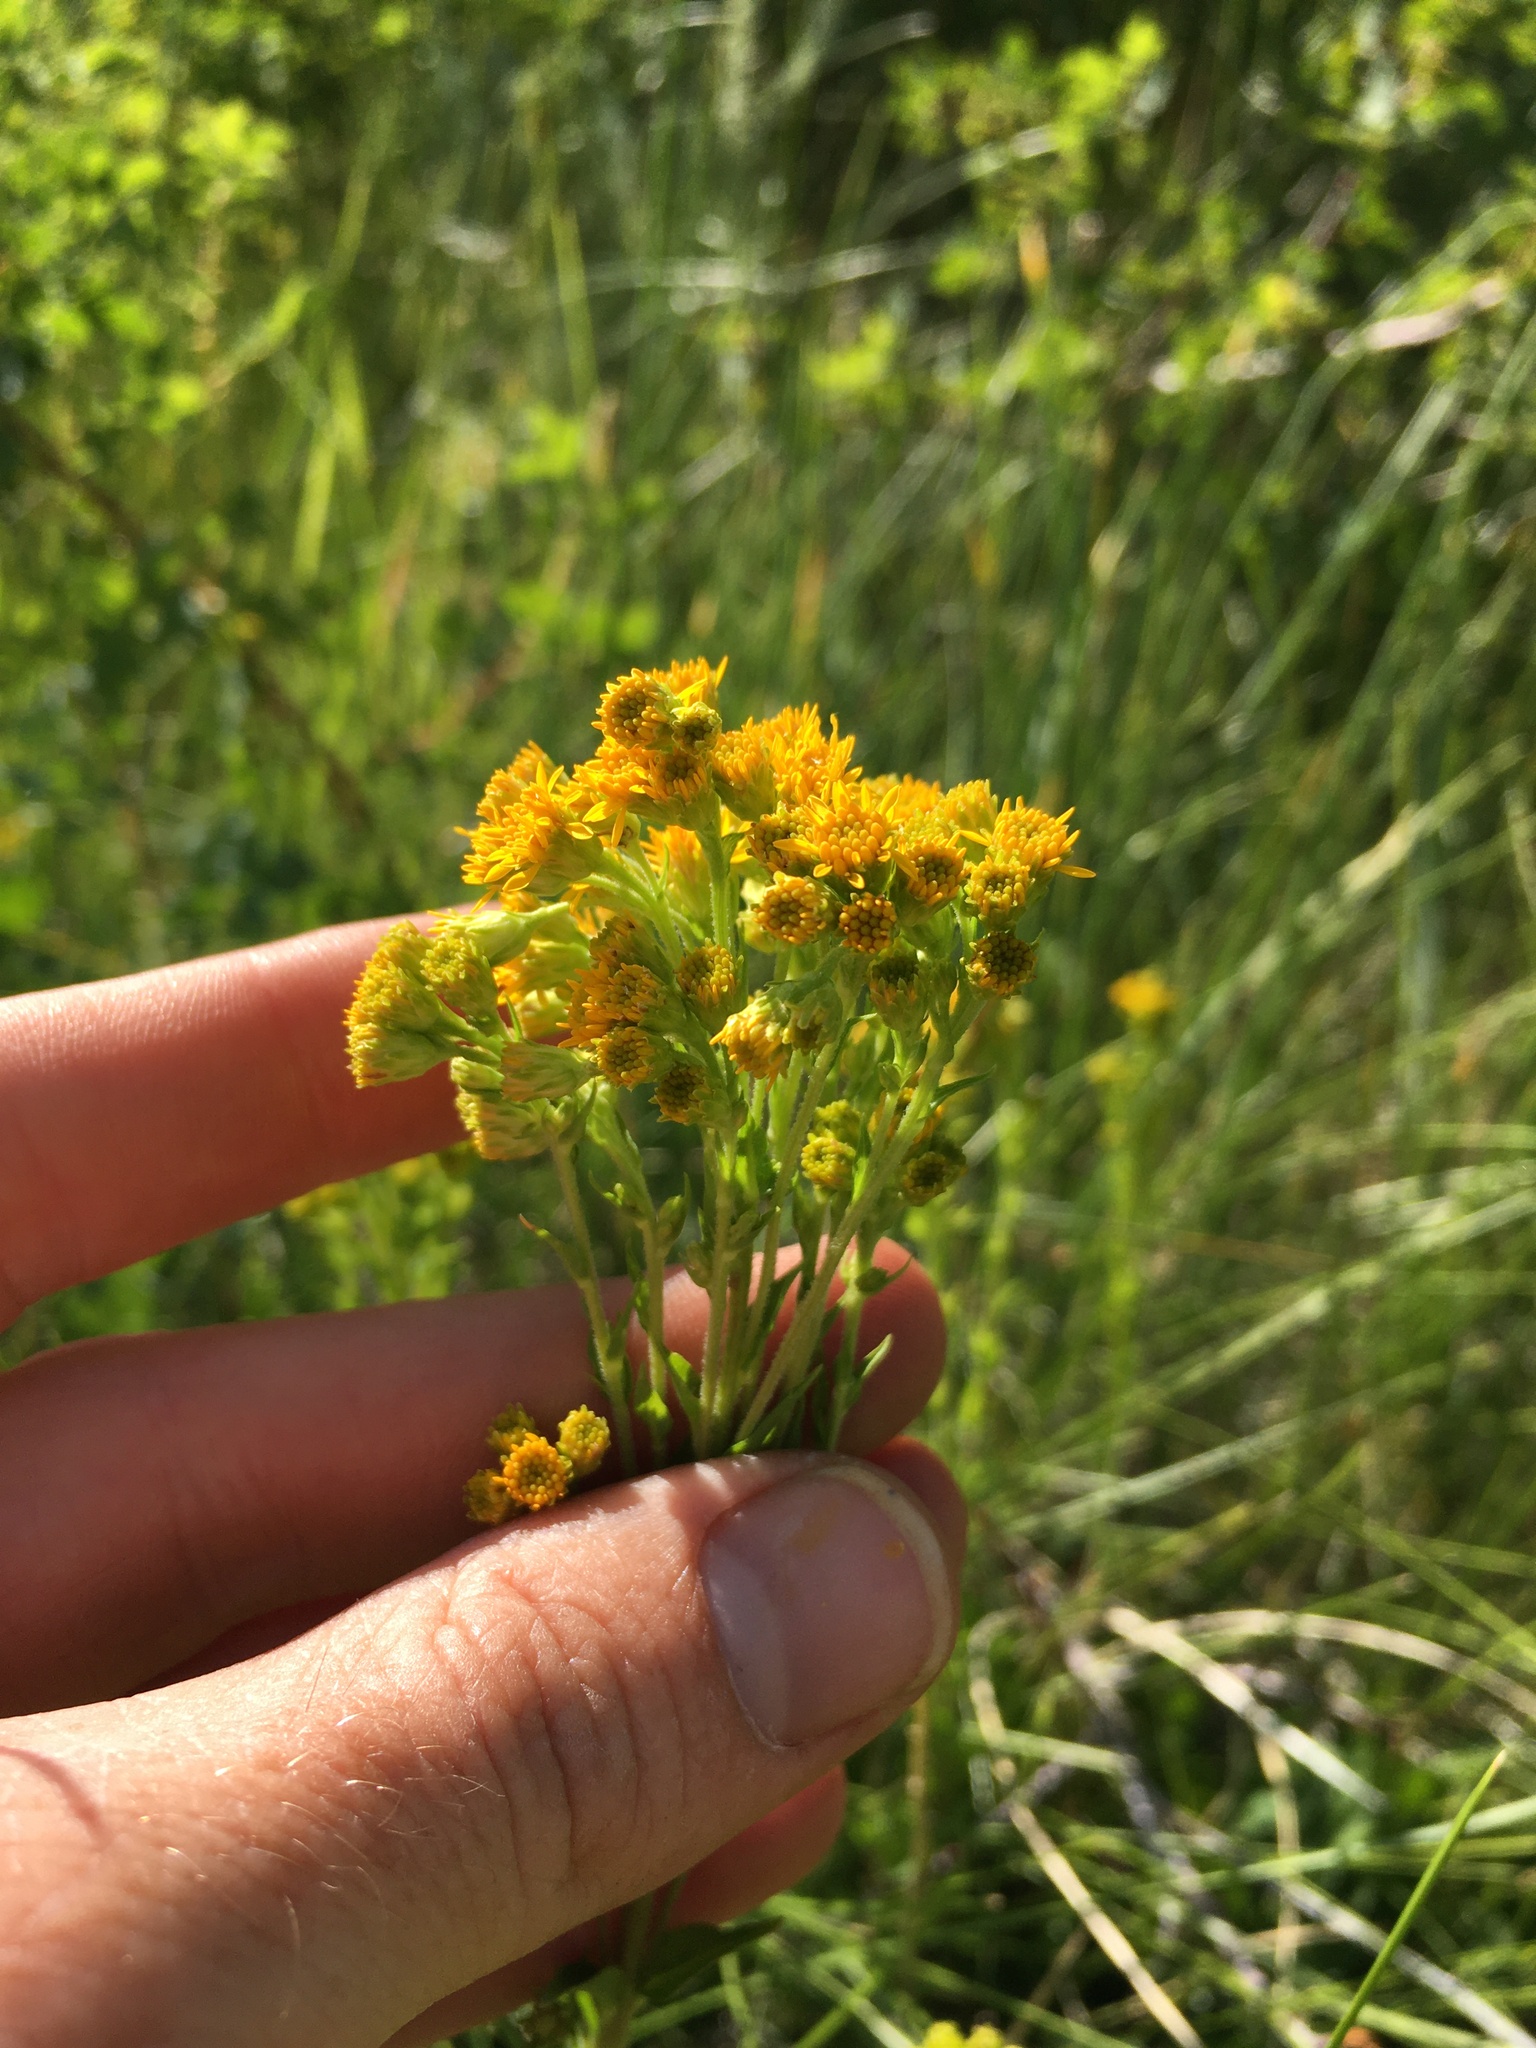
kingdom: Plantae
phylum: Tracheophyta
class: Magnoliopsida
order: Asterales
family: Asteraceae
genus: Solidago
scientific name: Solidago multiradiata
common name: Northern goldenrod
